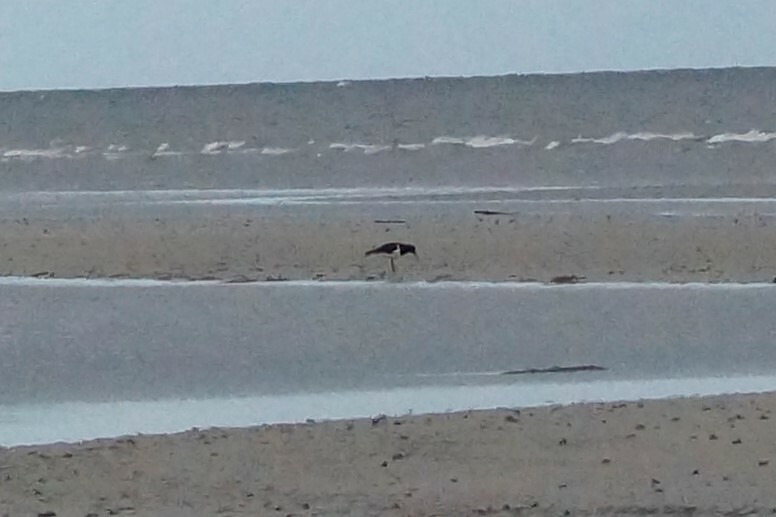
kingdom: Animalia
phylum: Chordata
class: Aves
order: Charadriiformes
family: Haematopodidae
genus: Haematopus
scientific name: Haematopus longirostris
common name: Pied oystercatcher
